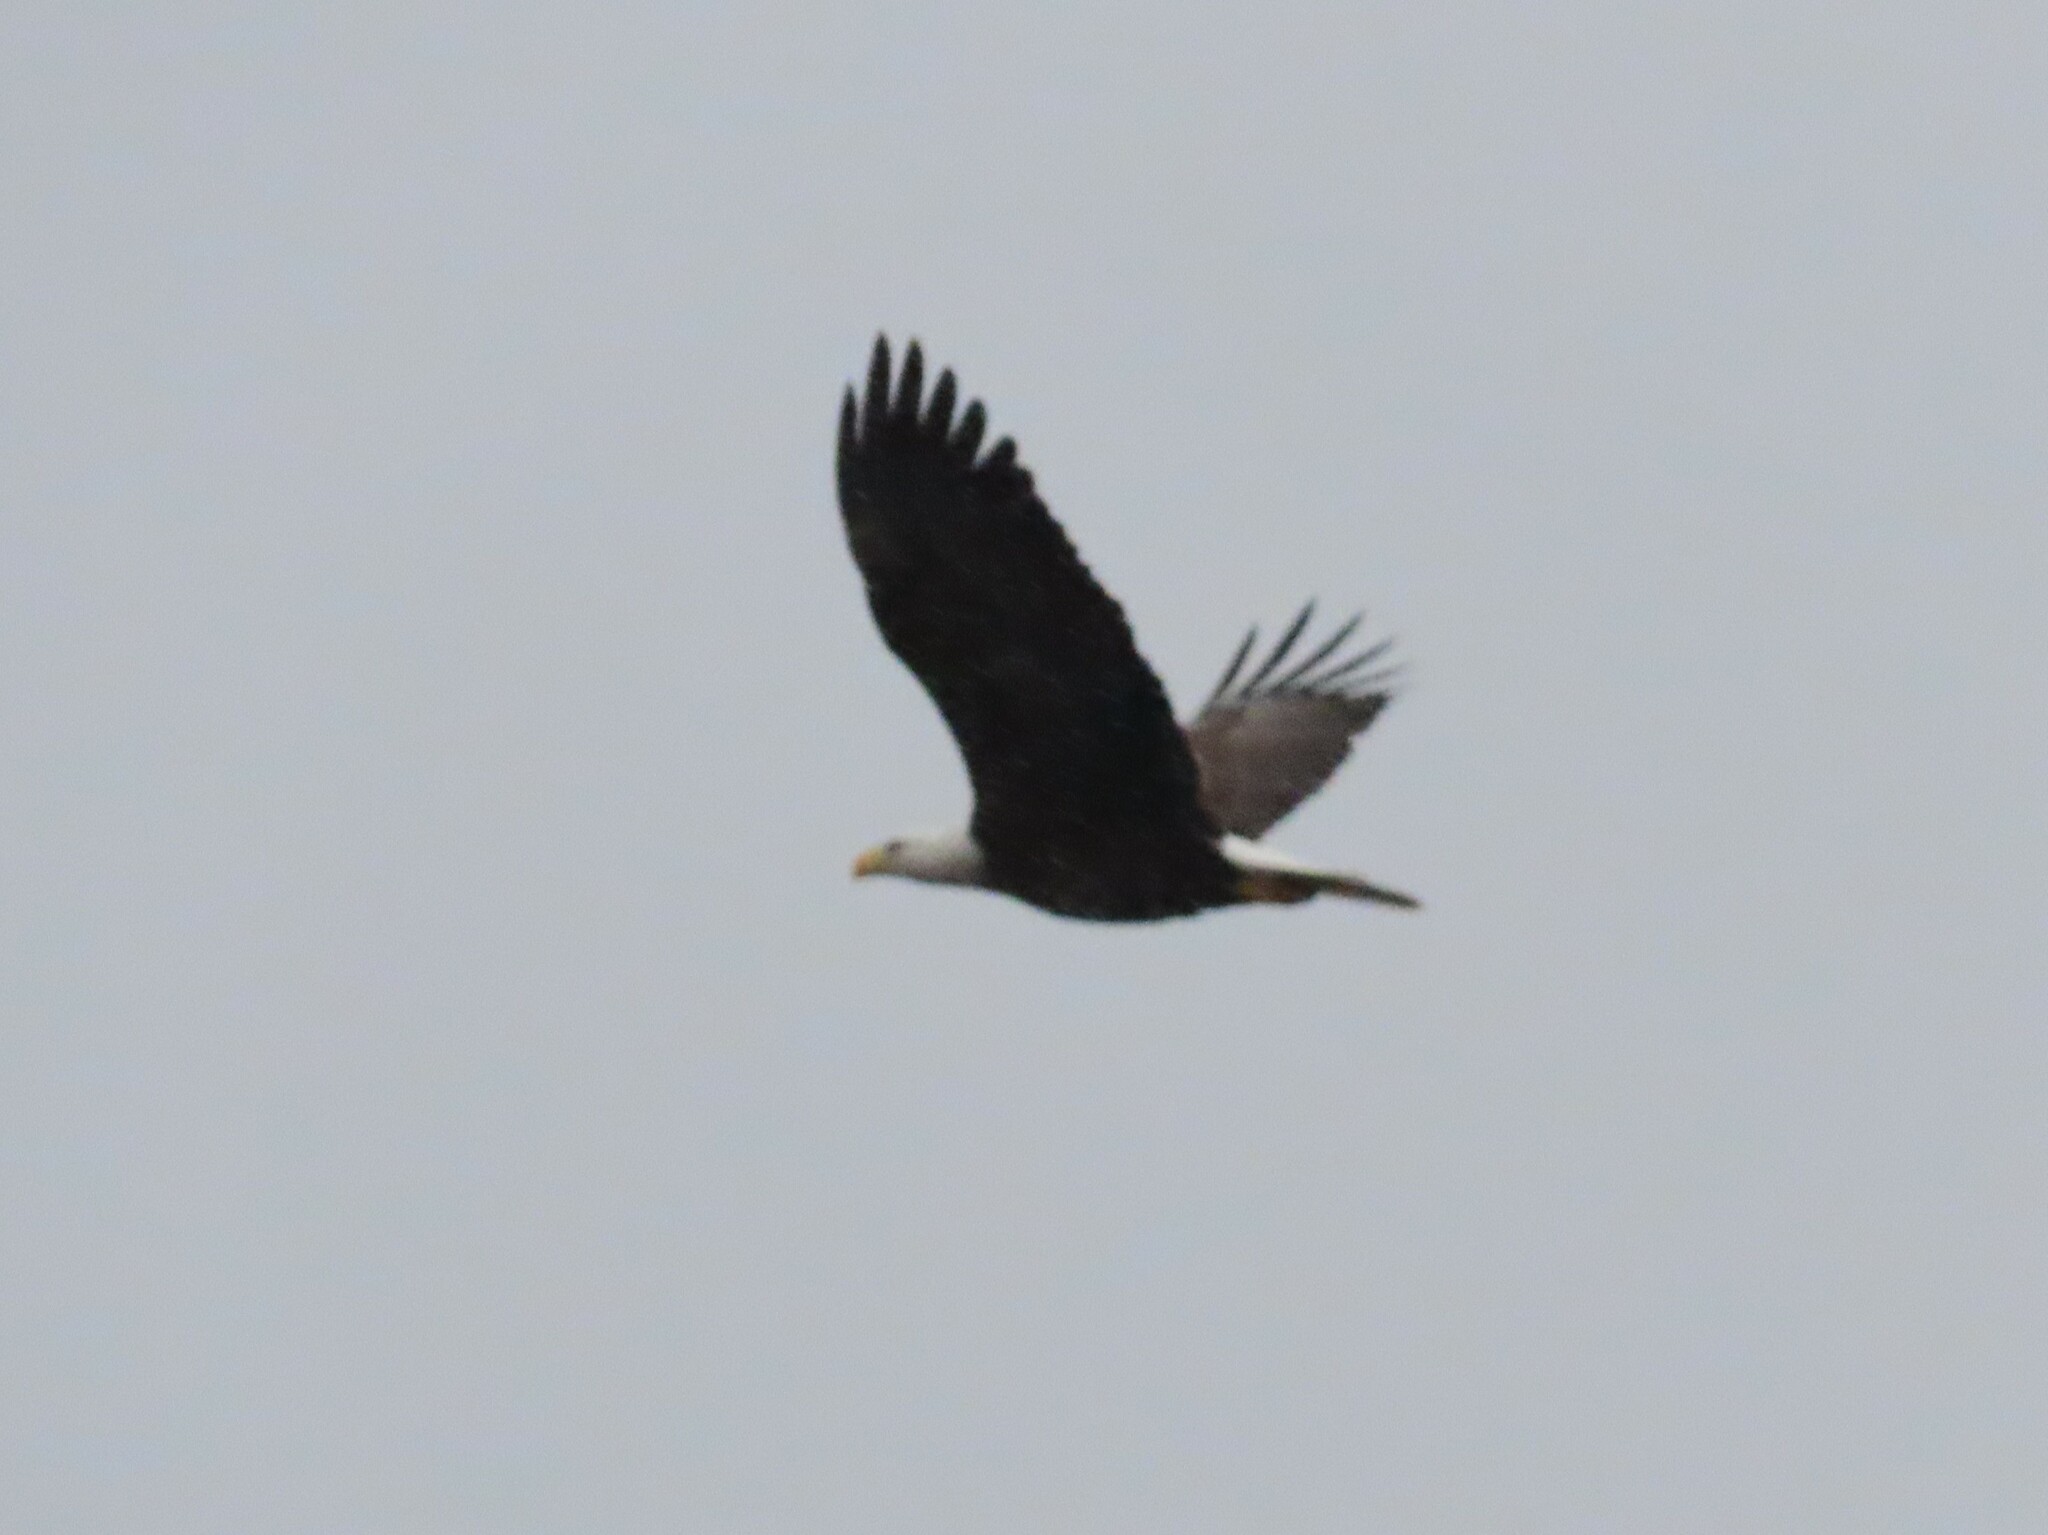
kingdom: Animalia
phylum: Chordata
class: Aves
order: Accipitriformes
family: Accipitridae
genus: Haliaeetus
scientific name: Haliaeetus leucocephalus
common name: Bald eagle
